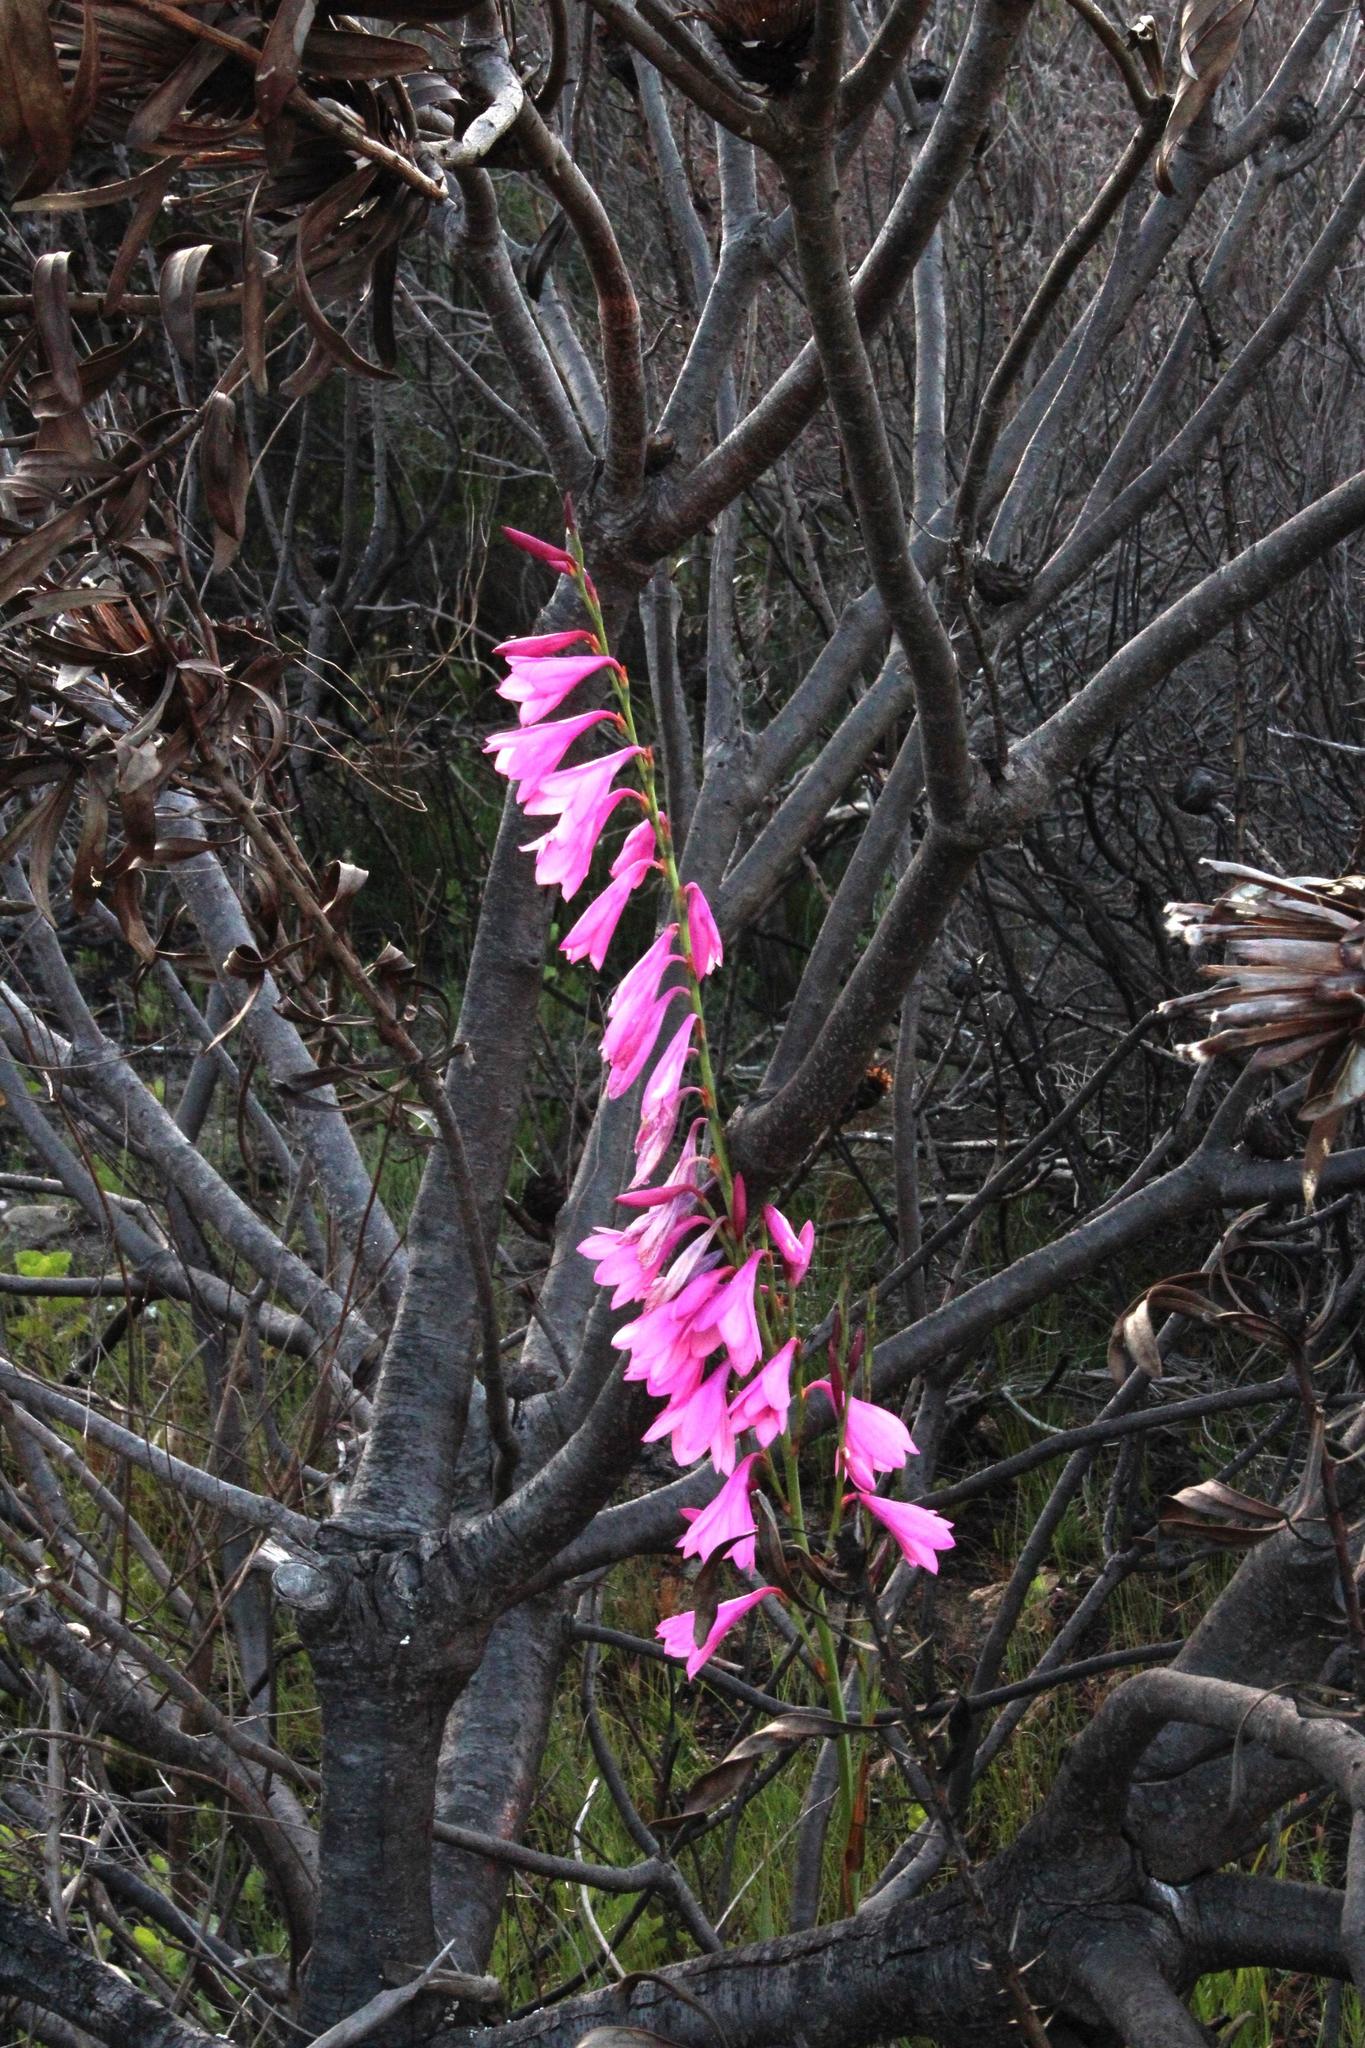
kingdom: Plantae
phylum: Tracheophyta
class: Liliopsida
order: Asparagales
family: Iridaceae
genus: Watsonia
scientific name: Watsonia borbonica
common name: Bugle-lily
